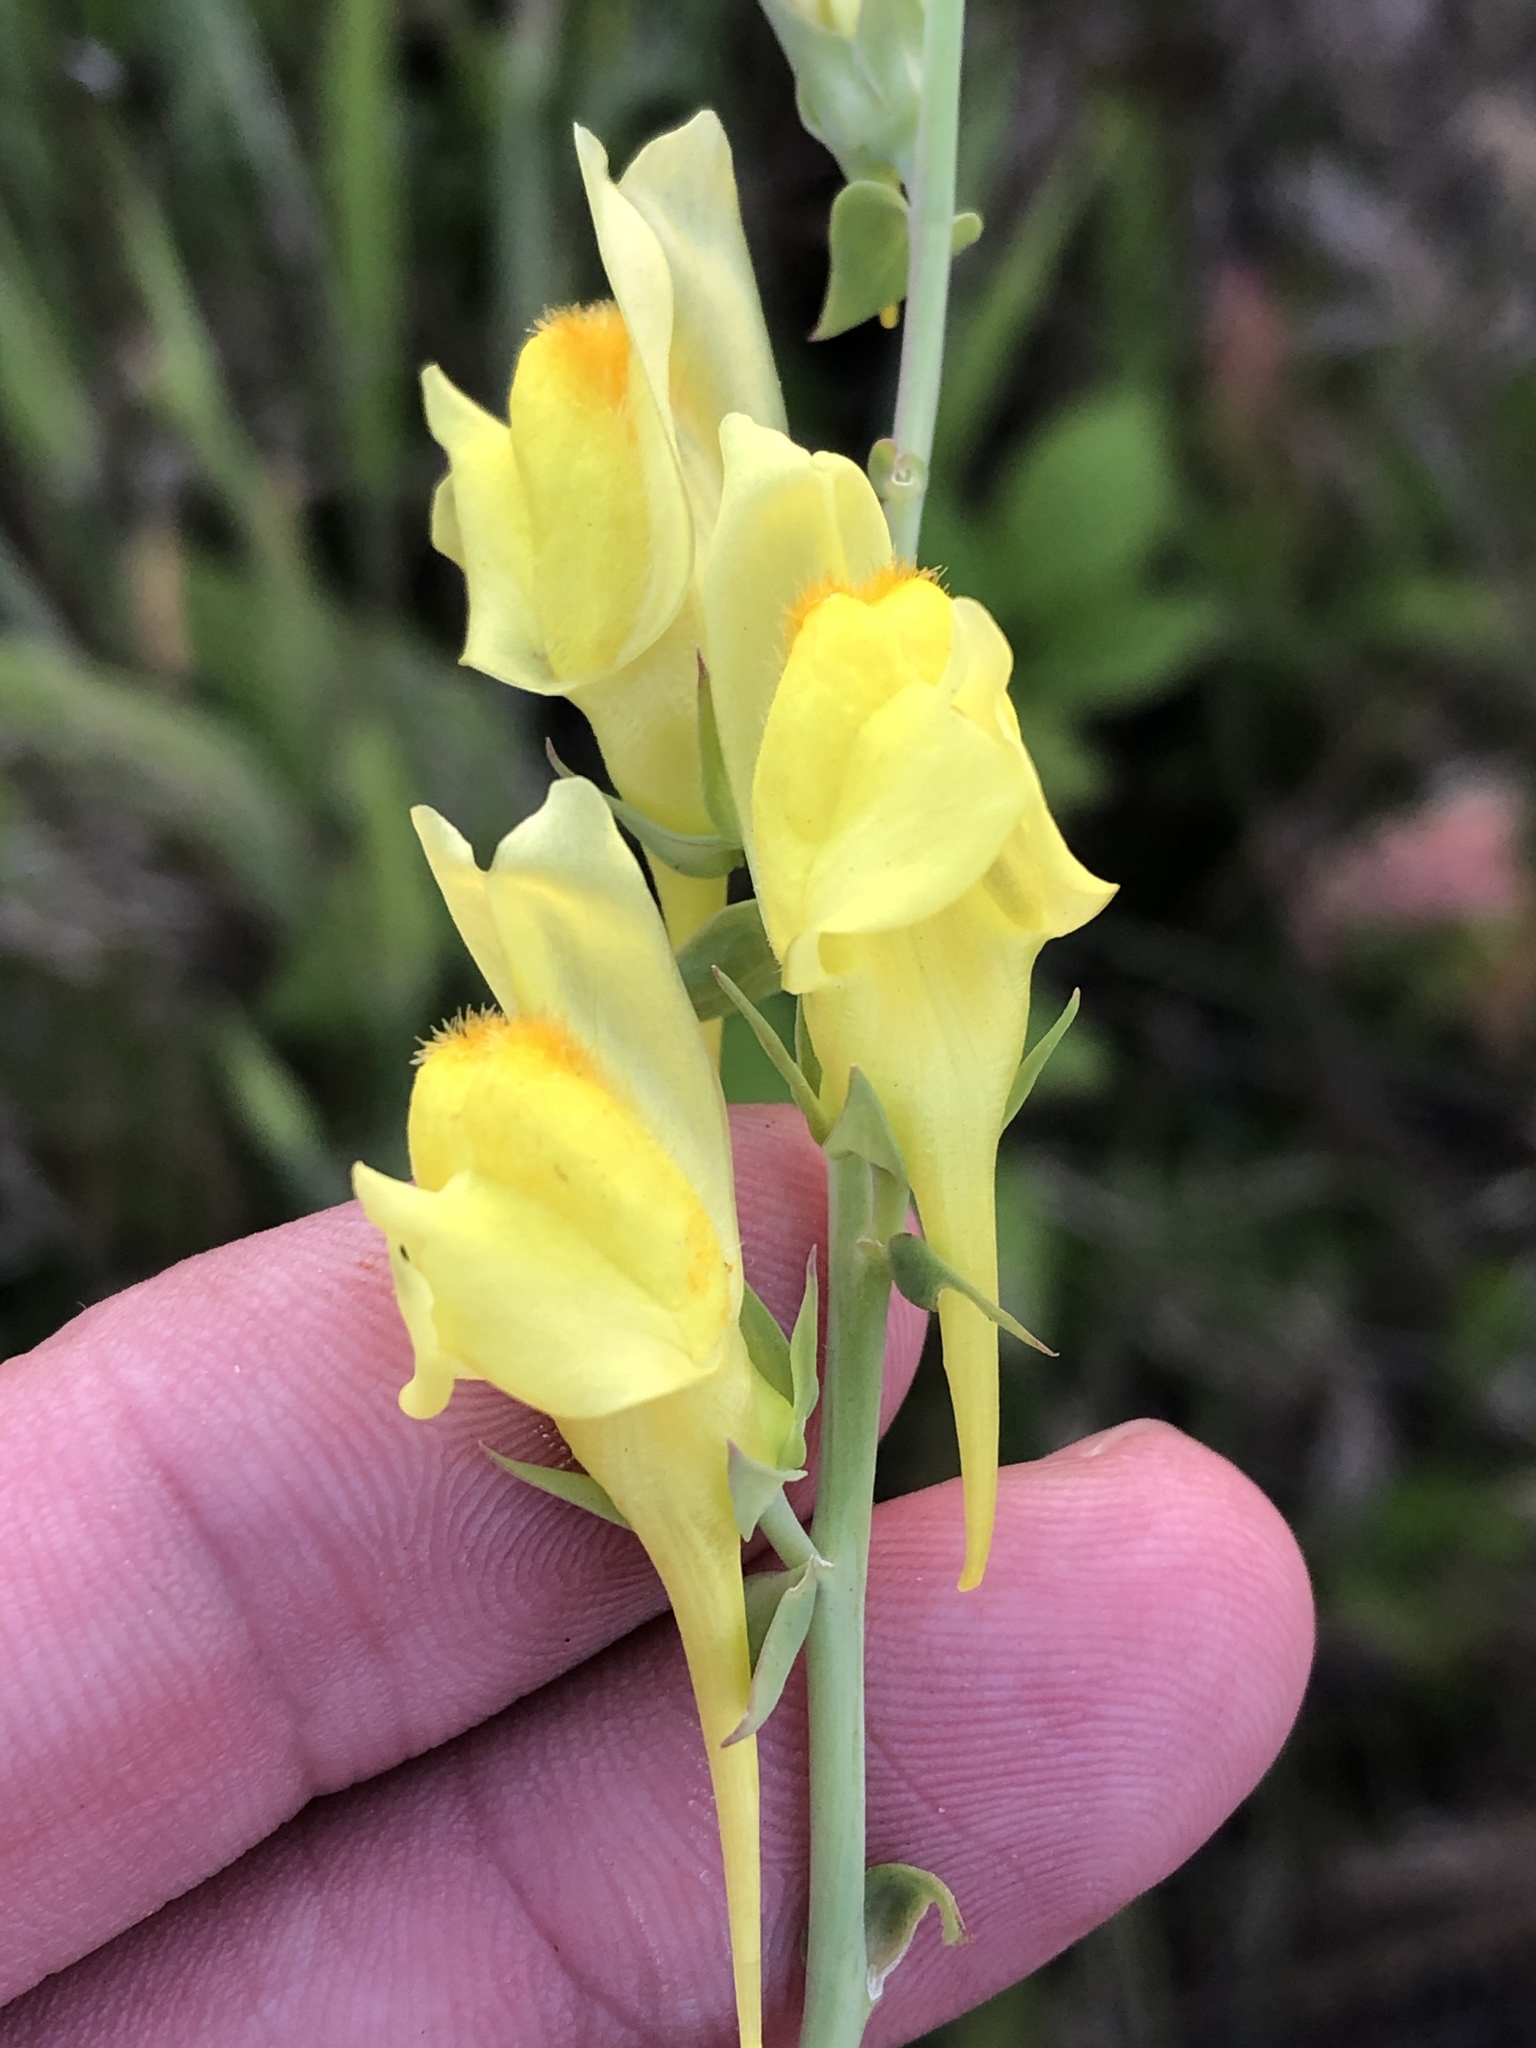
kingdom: Plantae
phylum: Tracheophyta
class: Magnoliopsida
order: Lamiales
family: Plantaginaceae
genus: Linaria
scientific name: Linaria dalmatica
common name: Dalmatian toadflax
